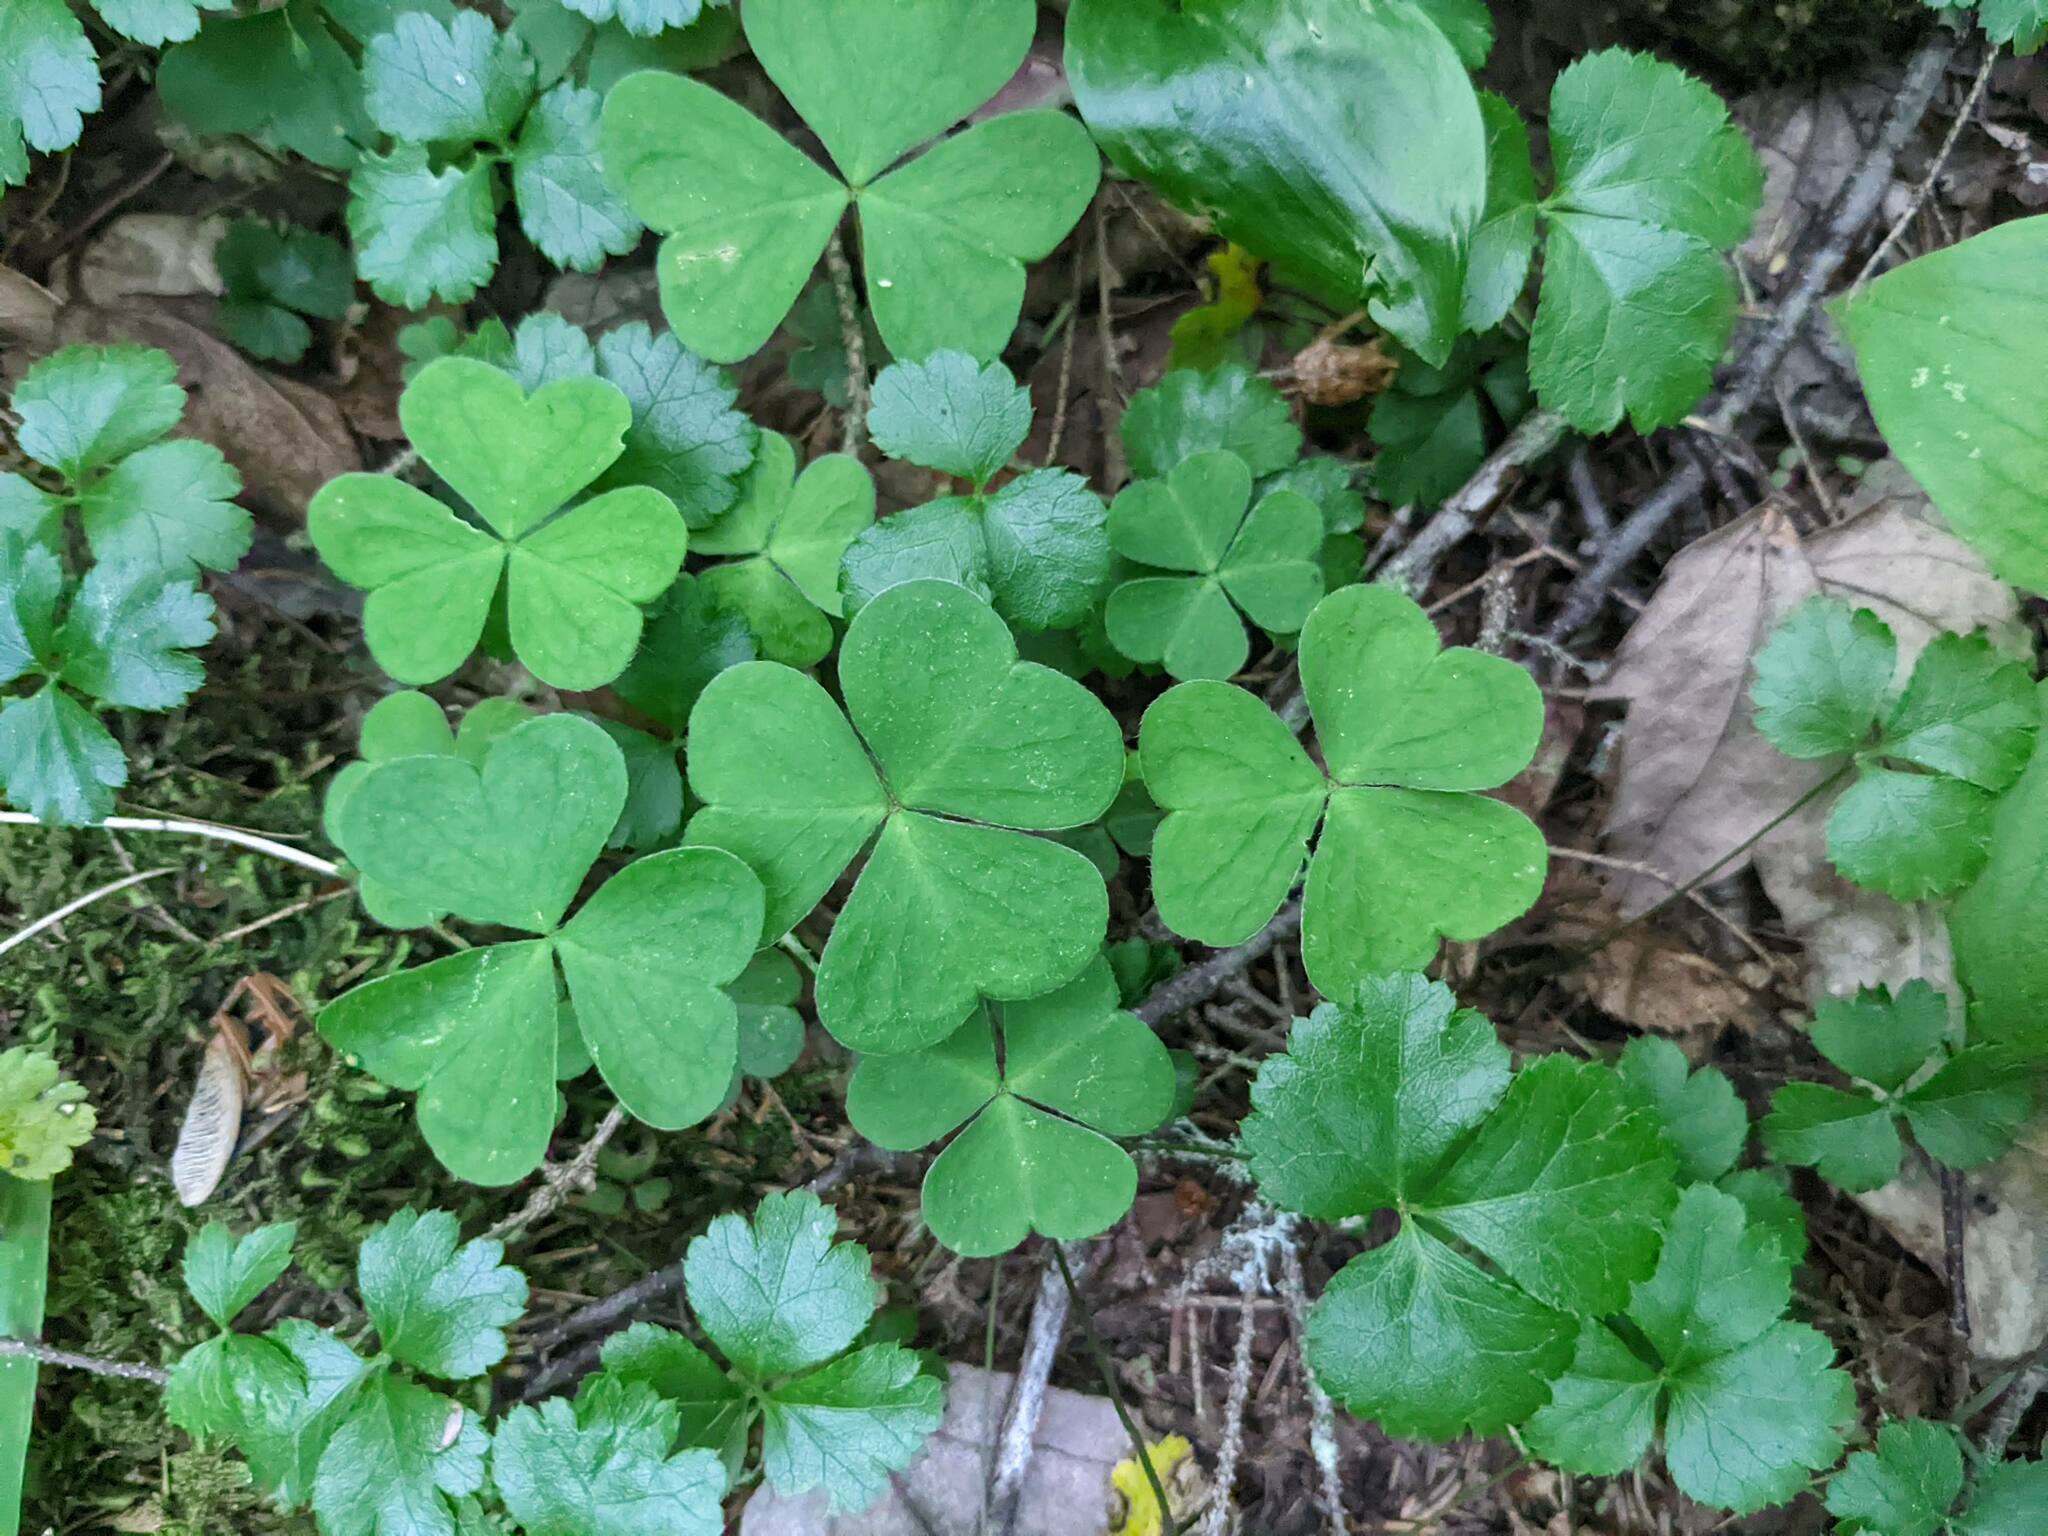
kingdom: Plantae
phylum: Tracheophyta
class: Magnoliopsida
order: Oxalidales
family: Oxalidaceae
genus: Oxalis
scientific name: Oxalis montana
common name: American wood-sorrel
